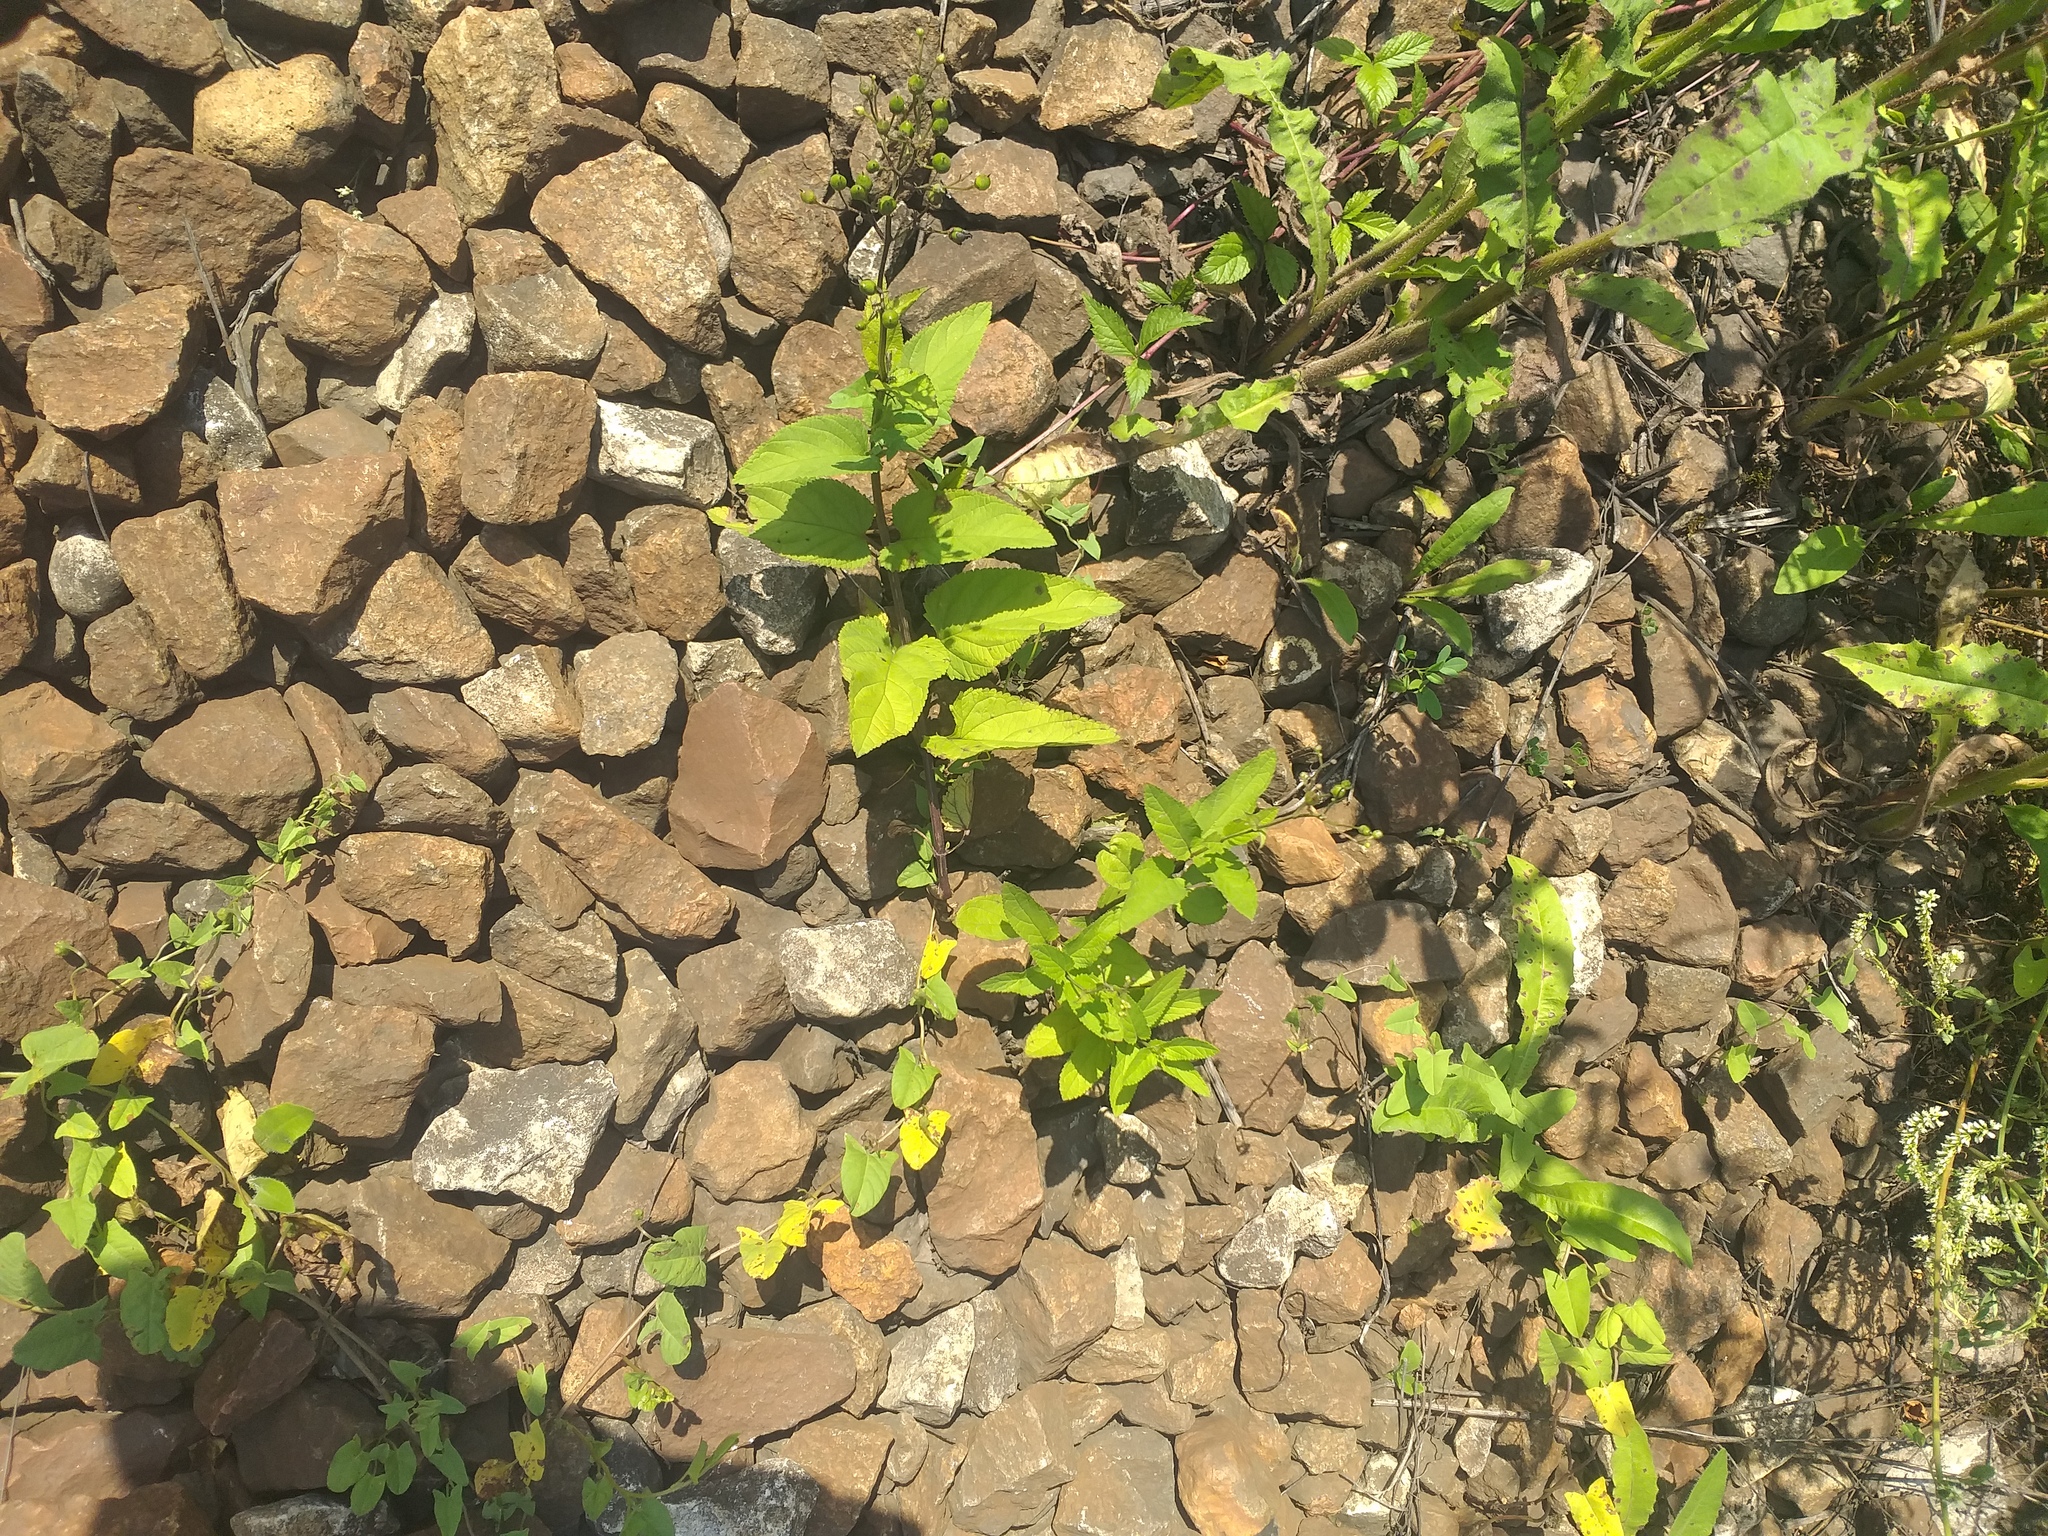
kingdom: Plantae
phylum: Tracheophyta
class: Magnoliopsida
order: Lamiales
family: Scrophulariaceae
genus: Scrophularia
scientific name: Scrophularia nodosa
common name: Common figwort
